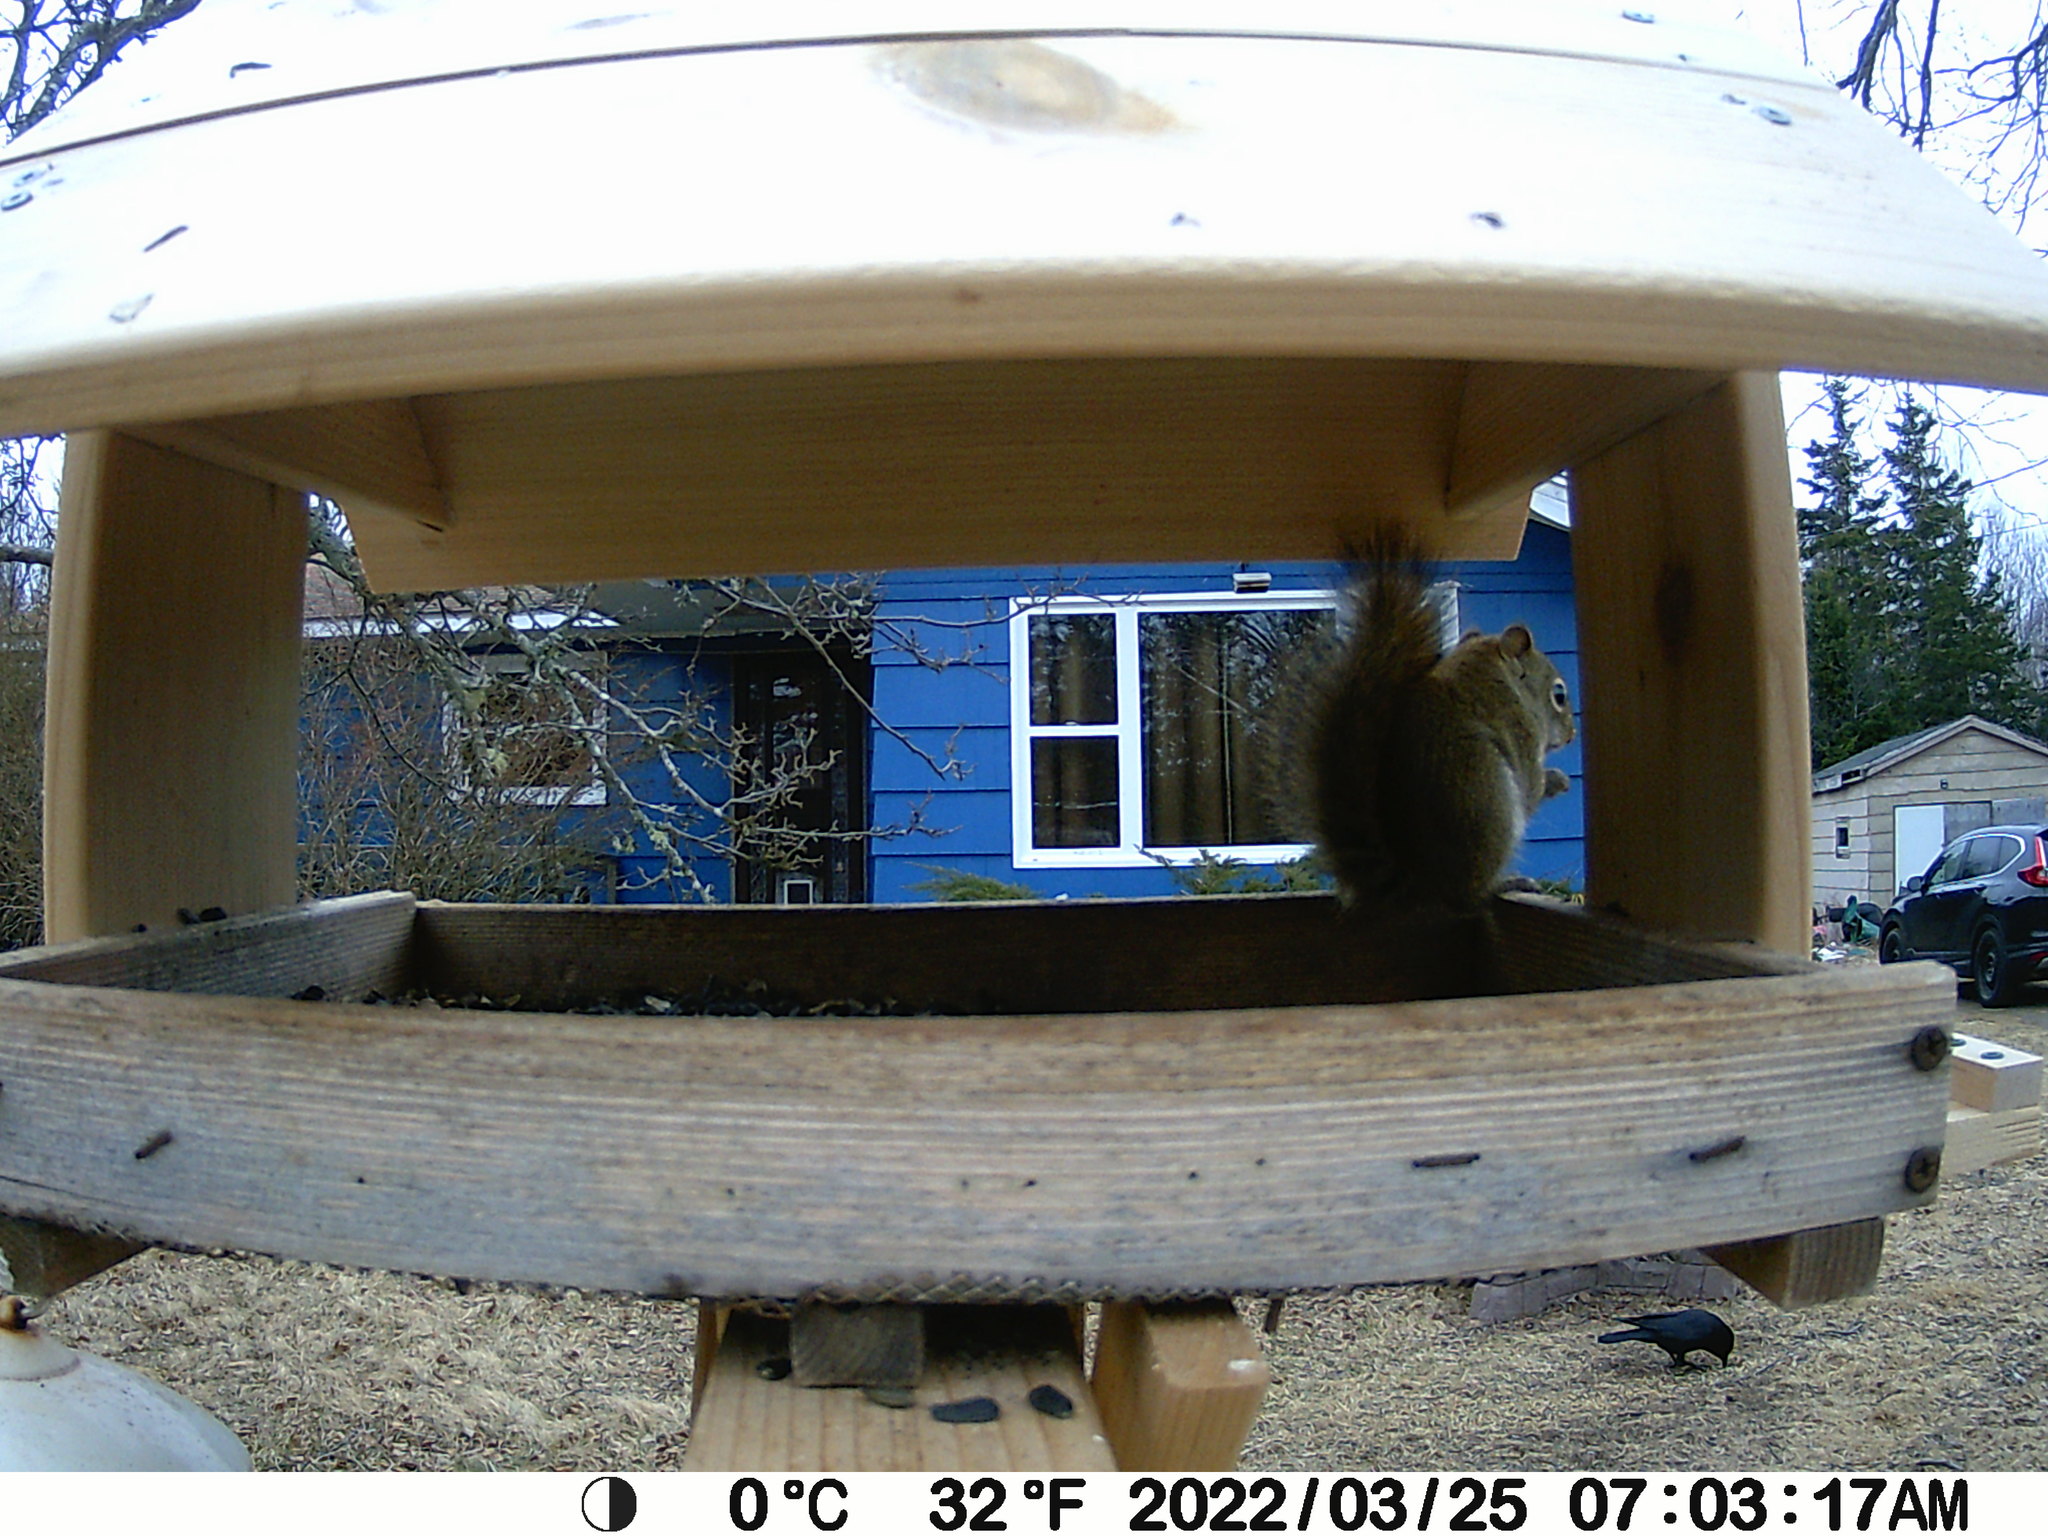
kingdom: Animalia
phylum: Chordata
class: Mammalia
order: Rodentia
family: Sciuridae
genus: Tamiasciurus
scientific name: Tamiasciurus hudsonicus
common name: Red squirrel
